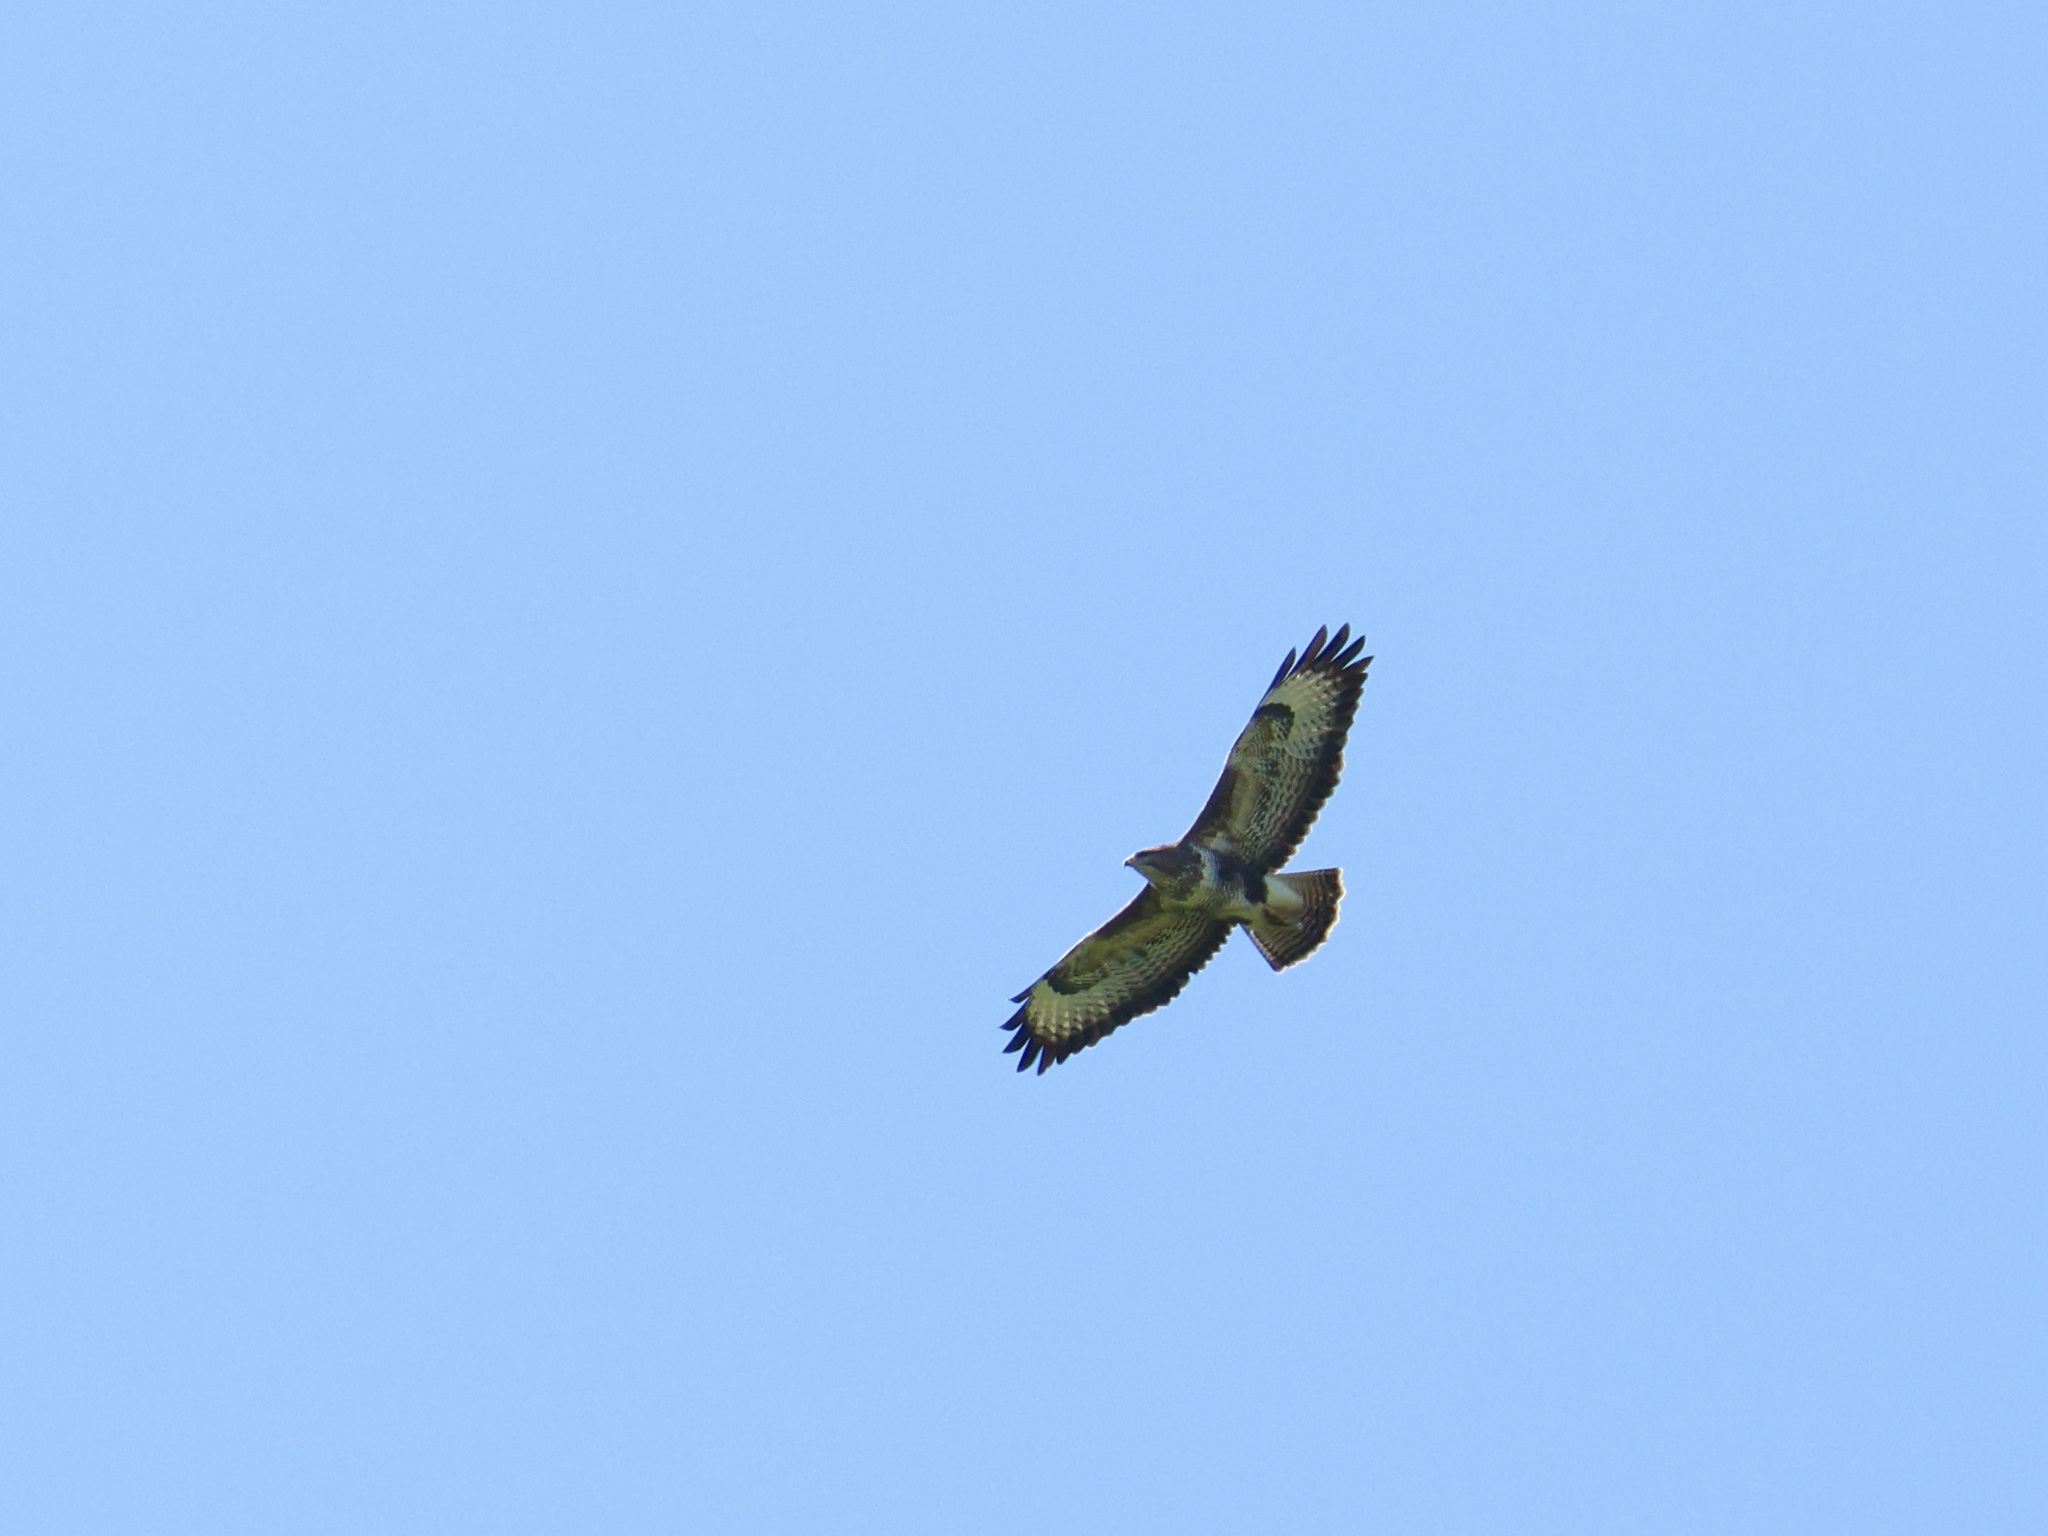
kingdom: Animalia
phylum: Chordata
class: Aves
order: Accipitriformes
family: Accipitridae
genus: Buteo
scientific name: Buteo buteo
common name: Common buzzard
